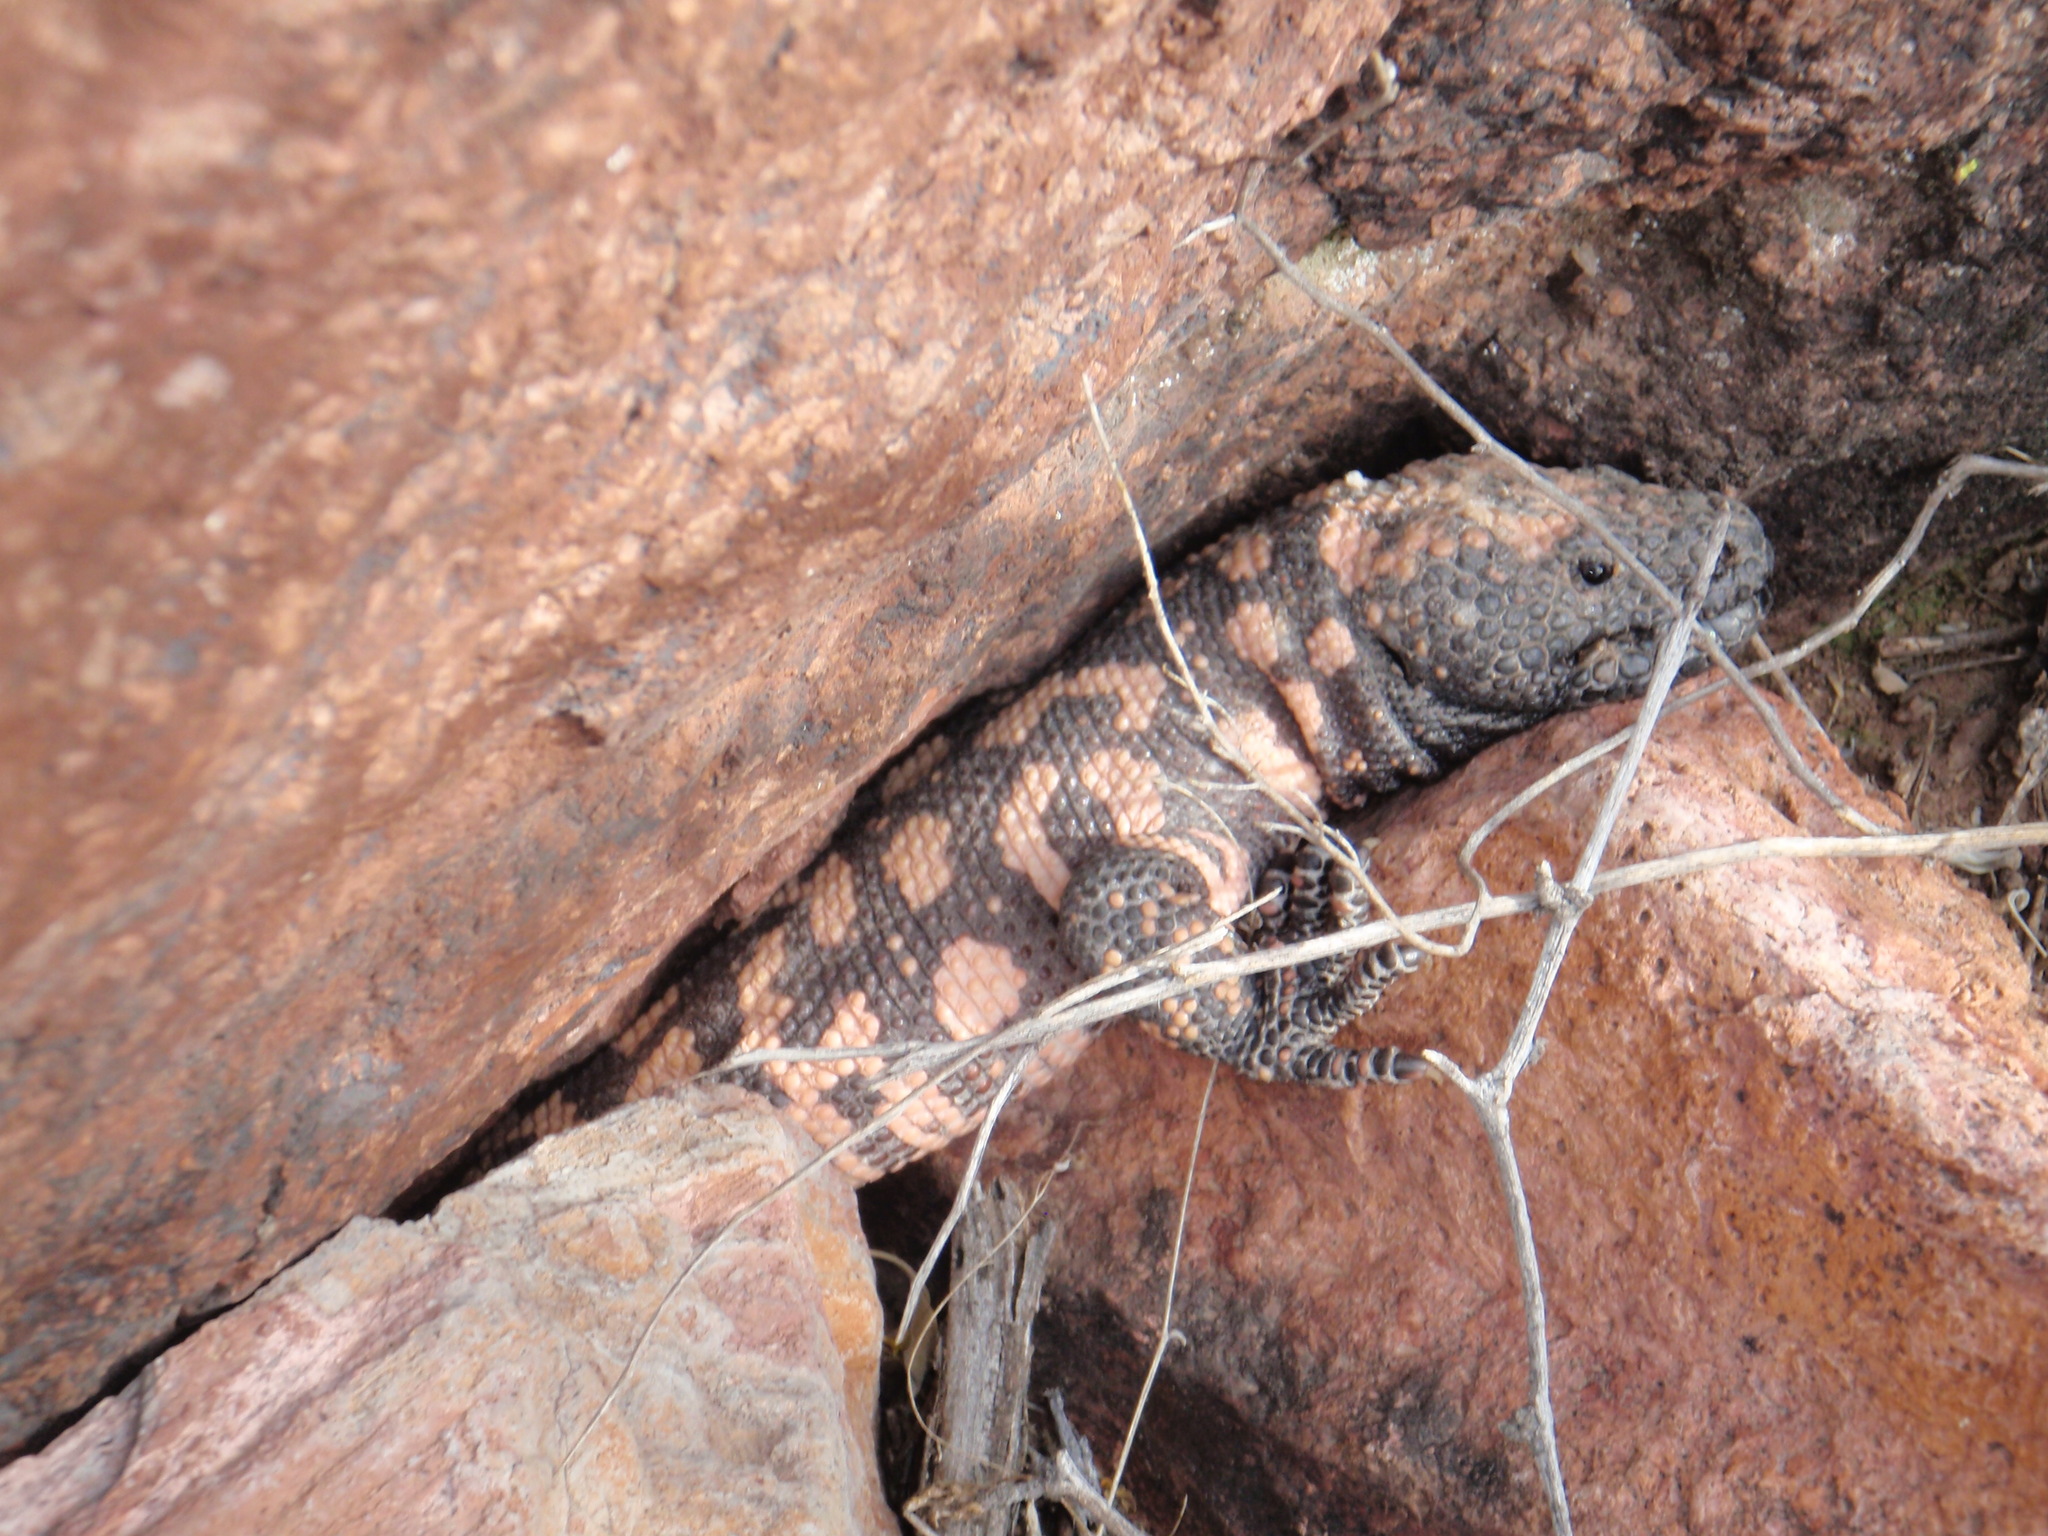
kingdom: Animalia
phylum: Chordata
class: Squamata
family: Helodermatidae
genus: Heloderma
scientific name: Heloderma suspectum
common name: Gila monster
